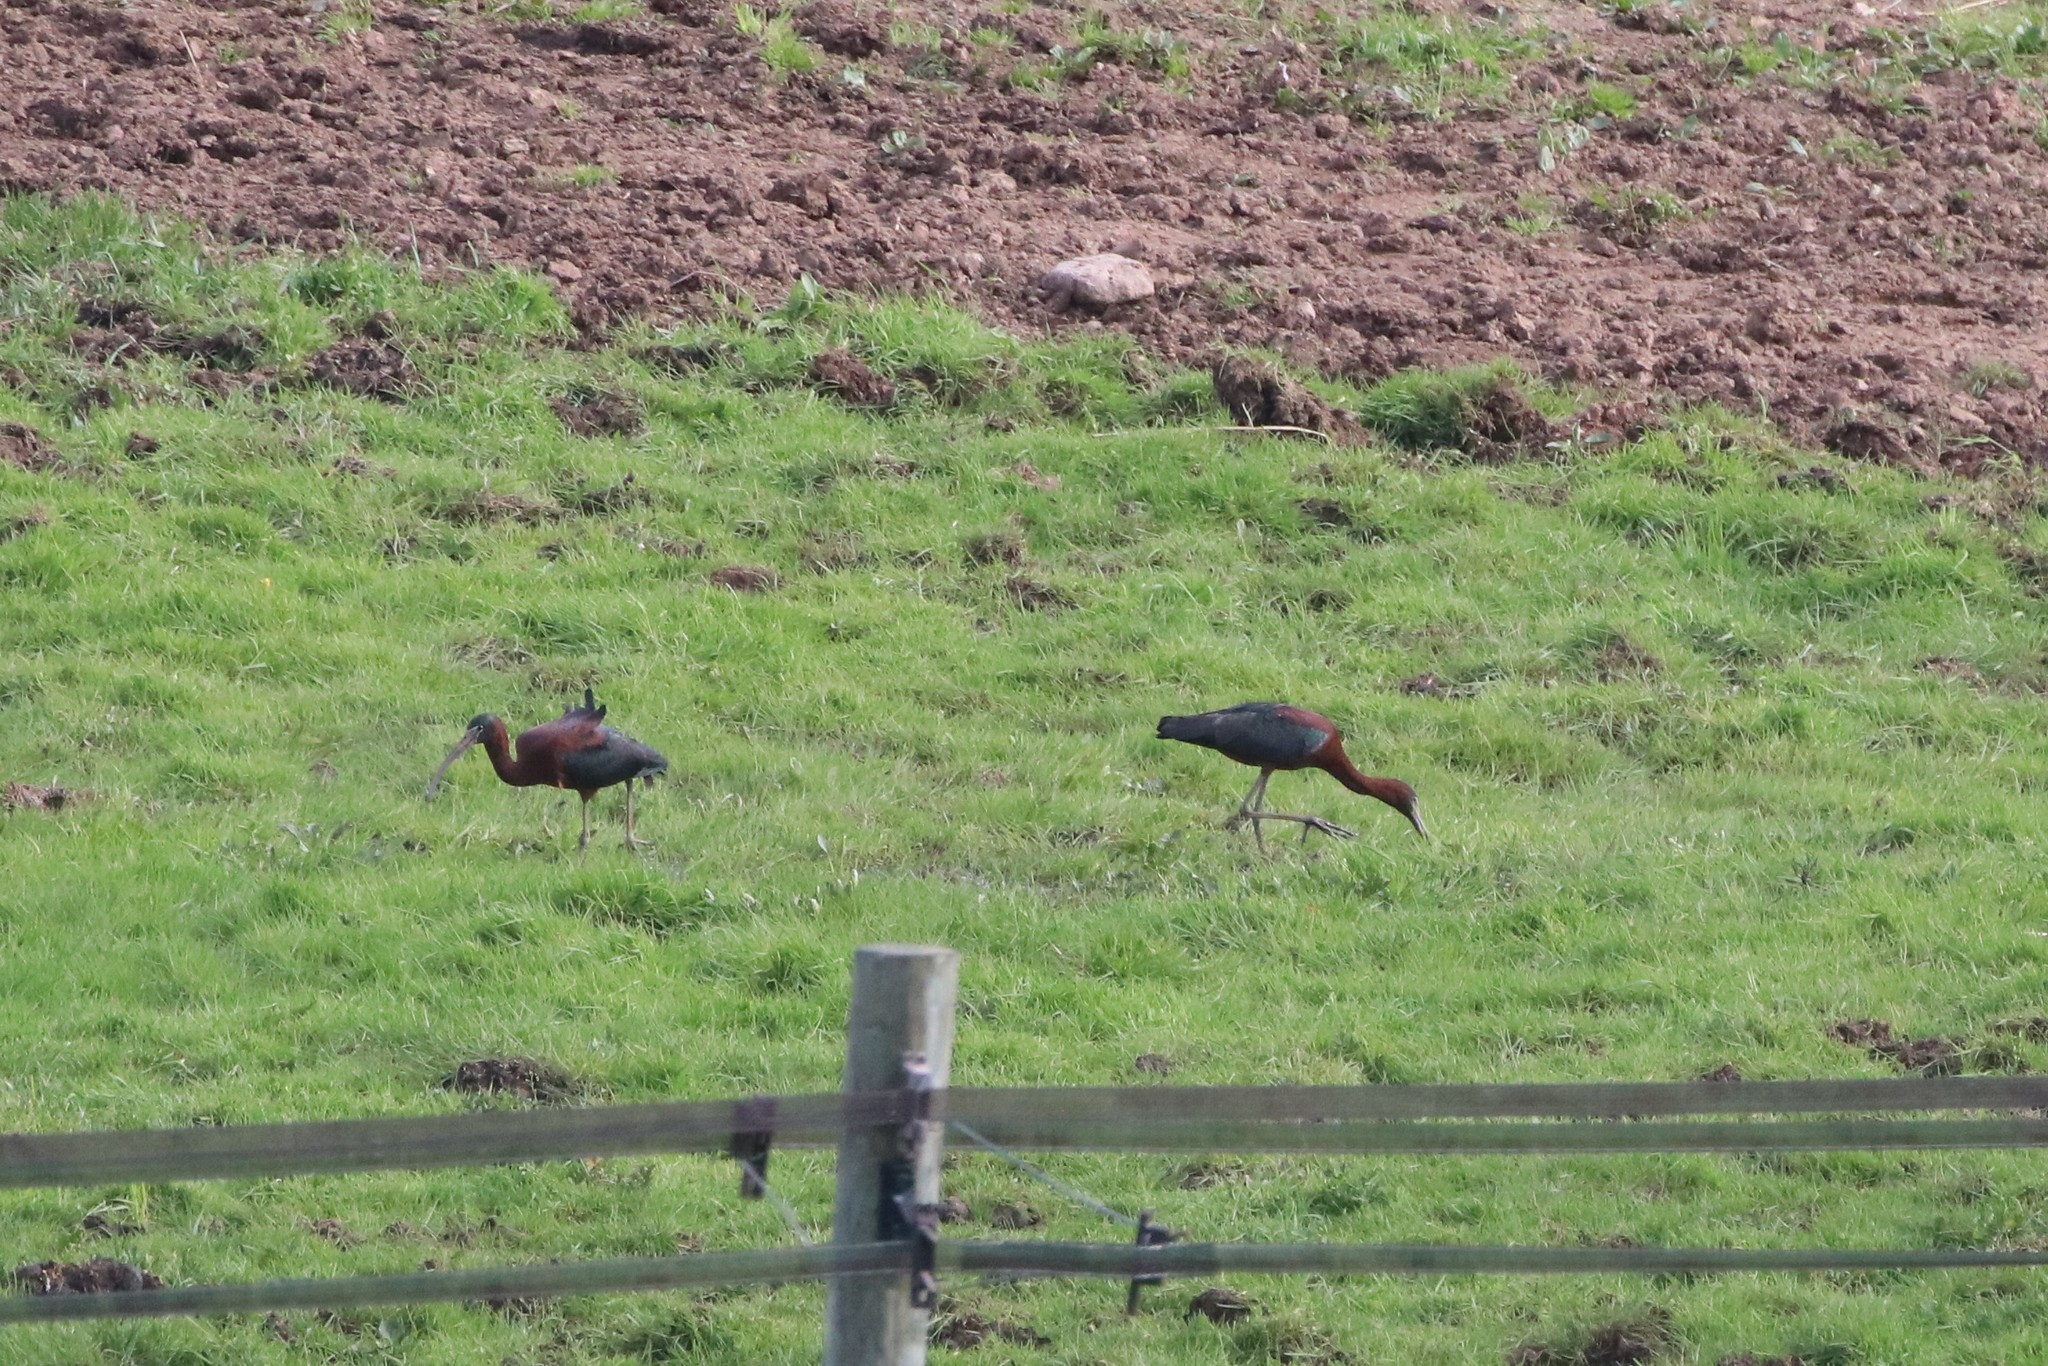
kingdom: Animalia
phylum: Chordata
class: Aves
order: Pelecaniformes
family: Threskiornithidae
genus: Plegadis
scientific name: Plegadis falcinellus
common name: Glossy ibis
